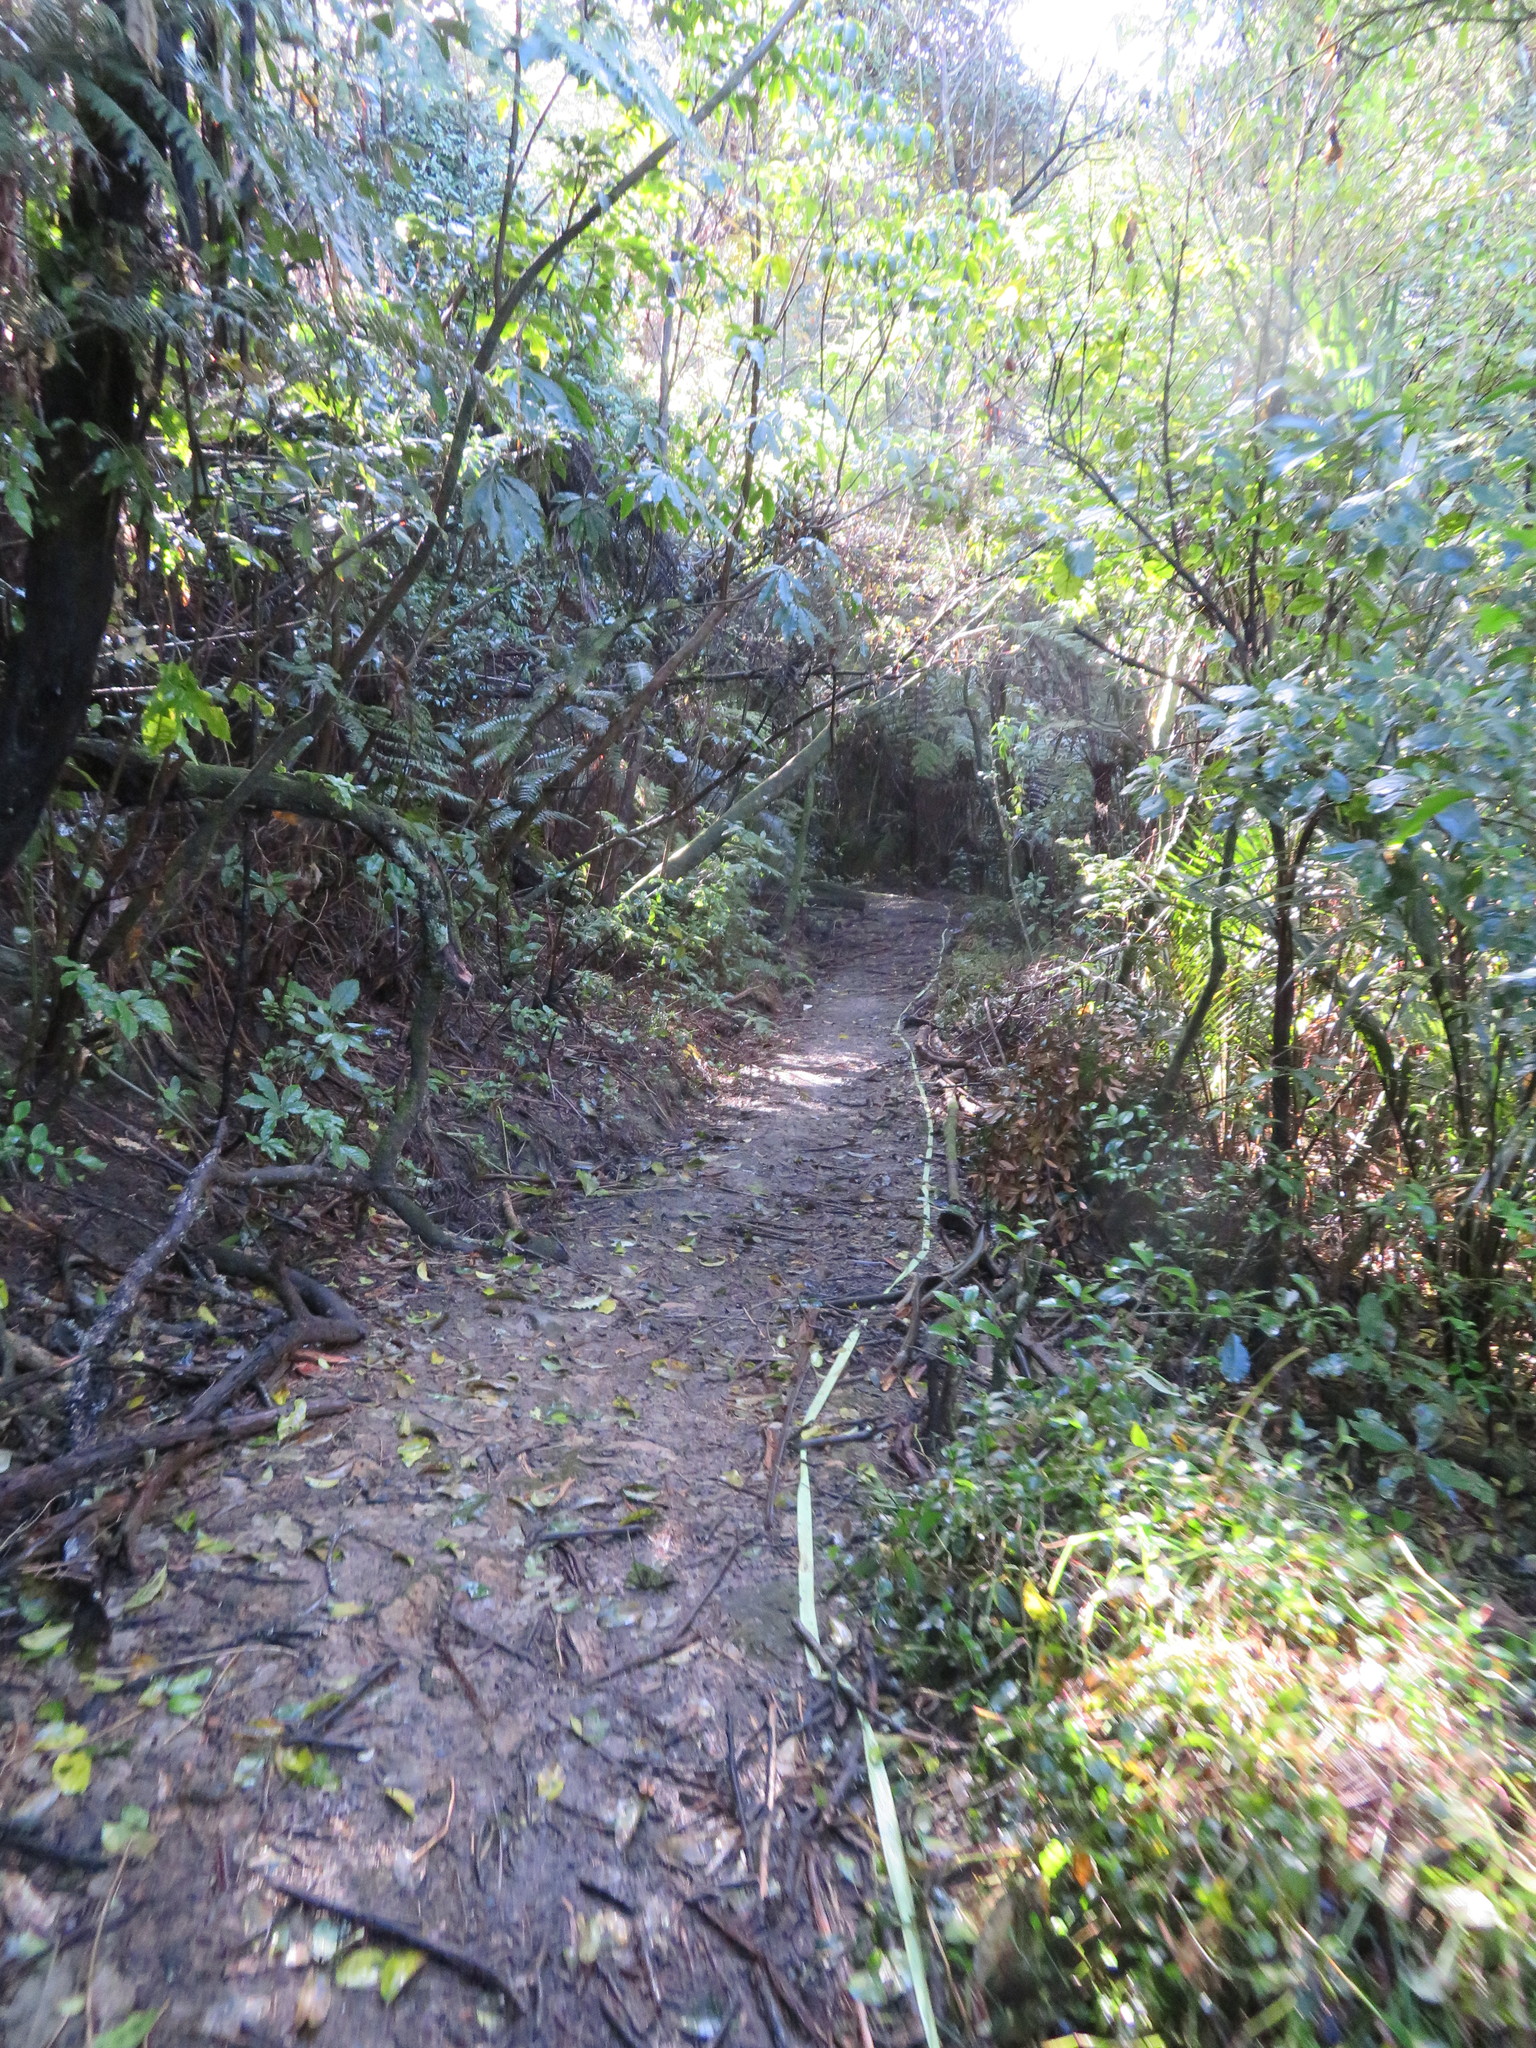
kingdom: Plantae
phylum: Tracheophyta
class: Liliopsida
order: Commelinales
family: Commelinaceae
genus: Tradescantia
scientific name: Tradescantia fluminensis
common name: Wandering-jew
